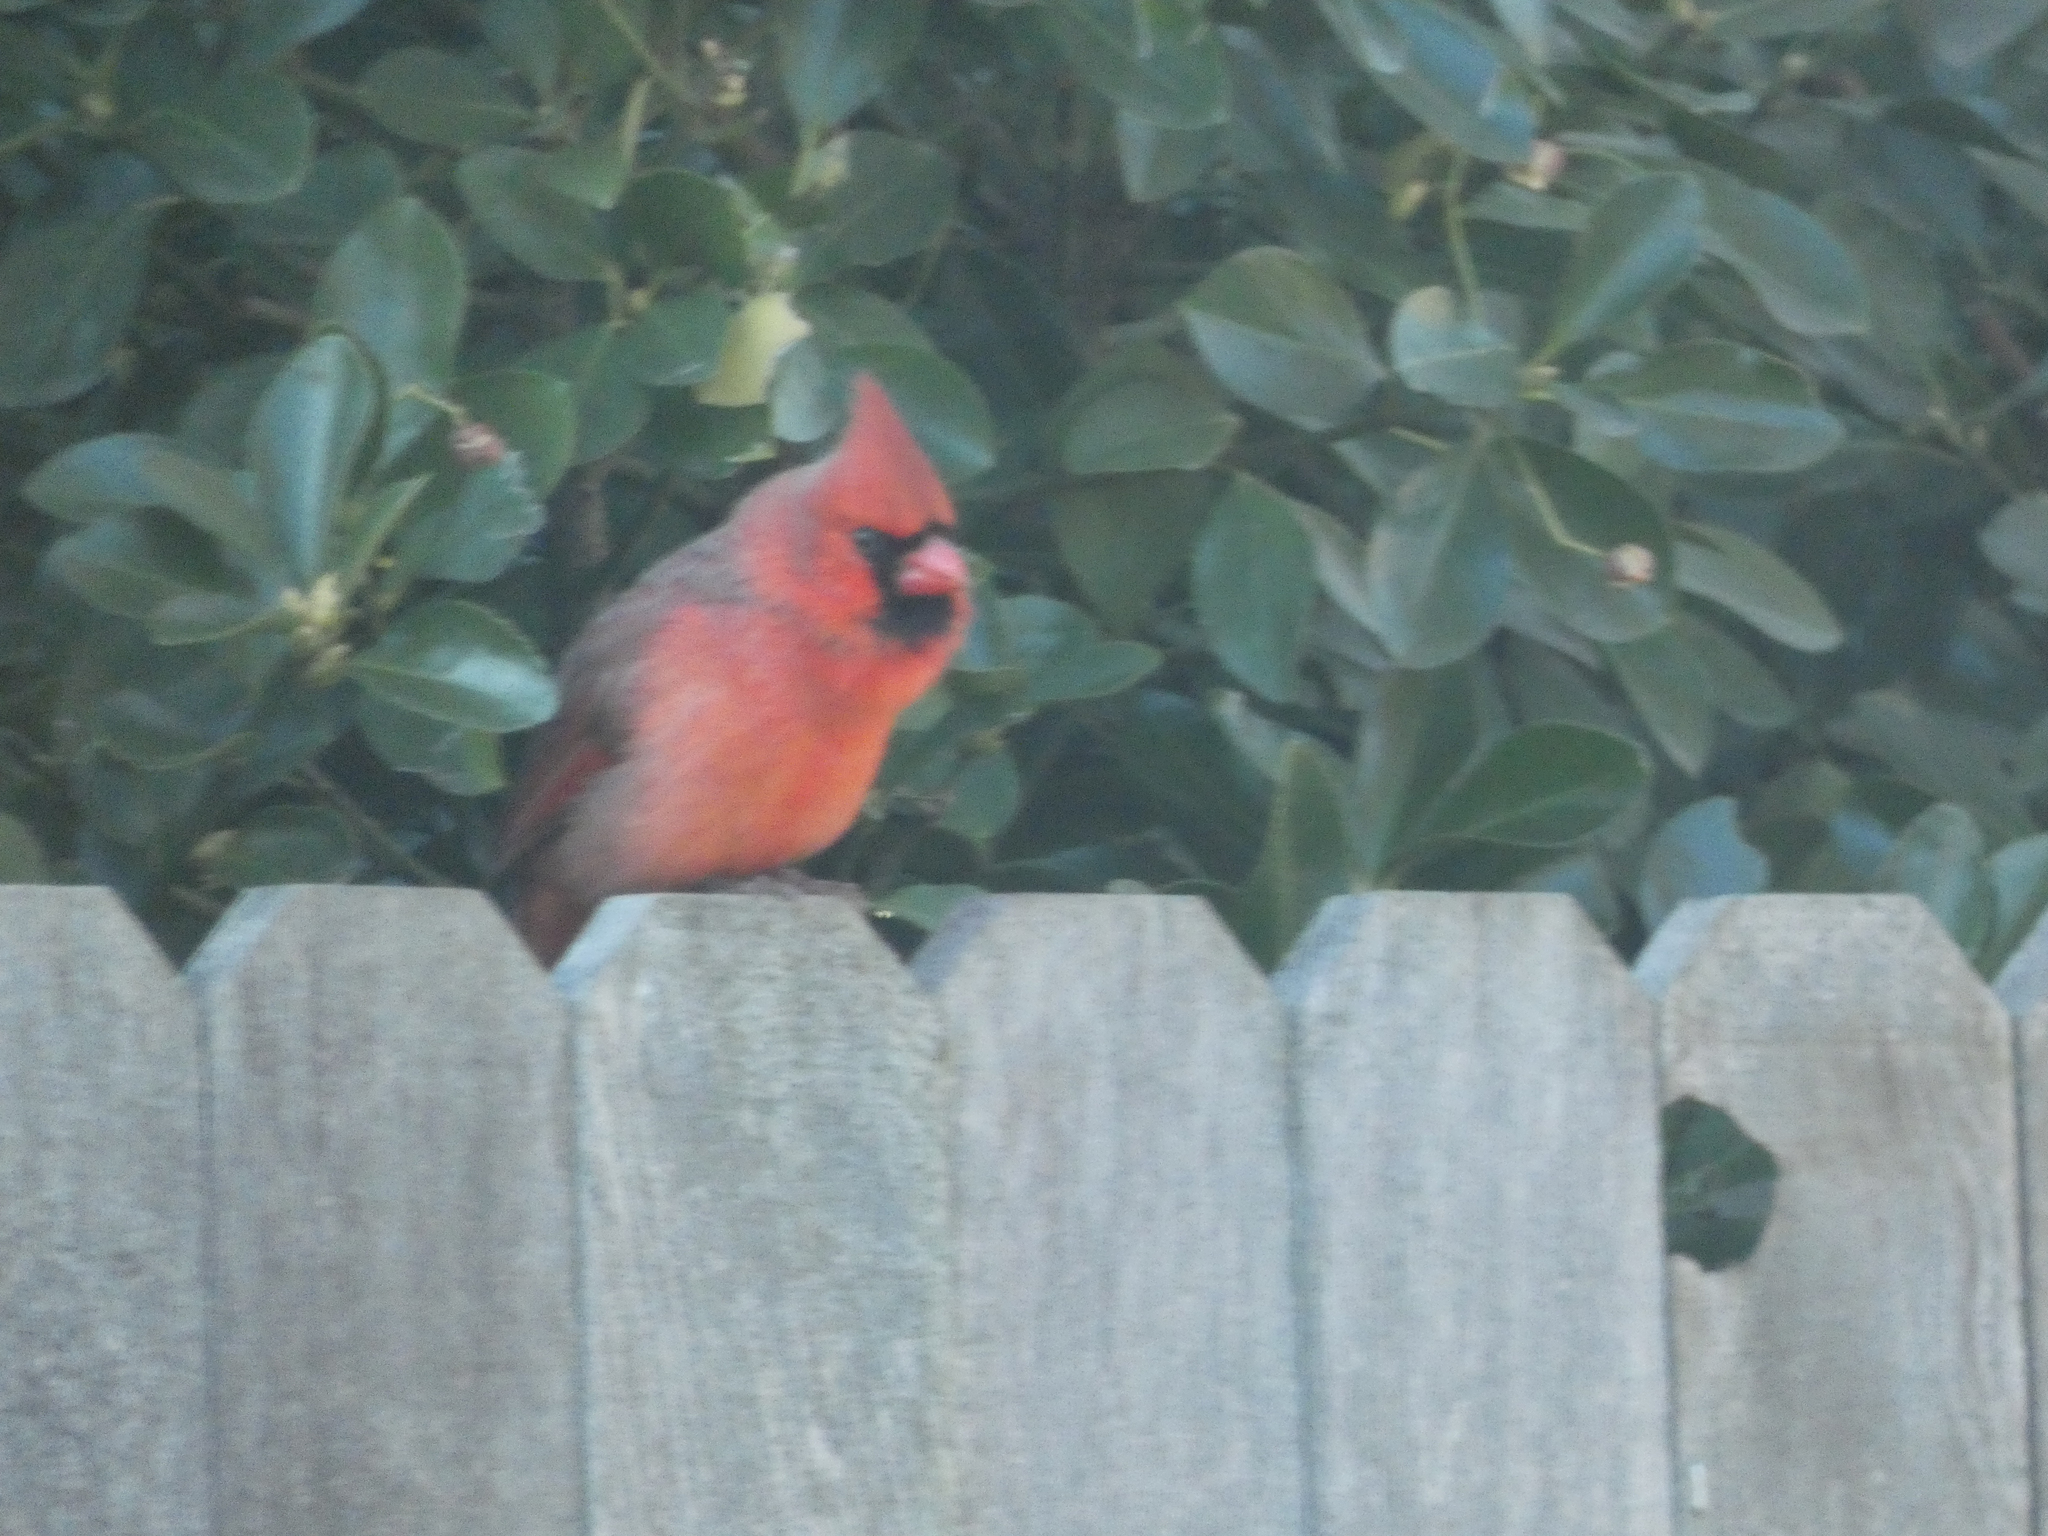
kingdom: Animalia
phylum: Chordata
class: Aves
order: Passeriformes
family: Cardinalidae
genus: Cardinalis
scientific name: Cardinalis cardinalis
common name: Northern cardinal
